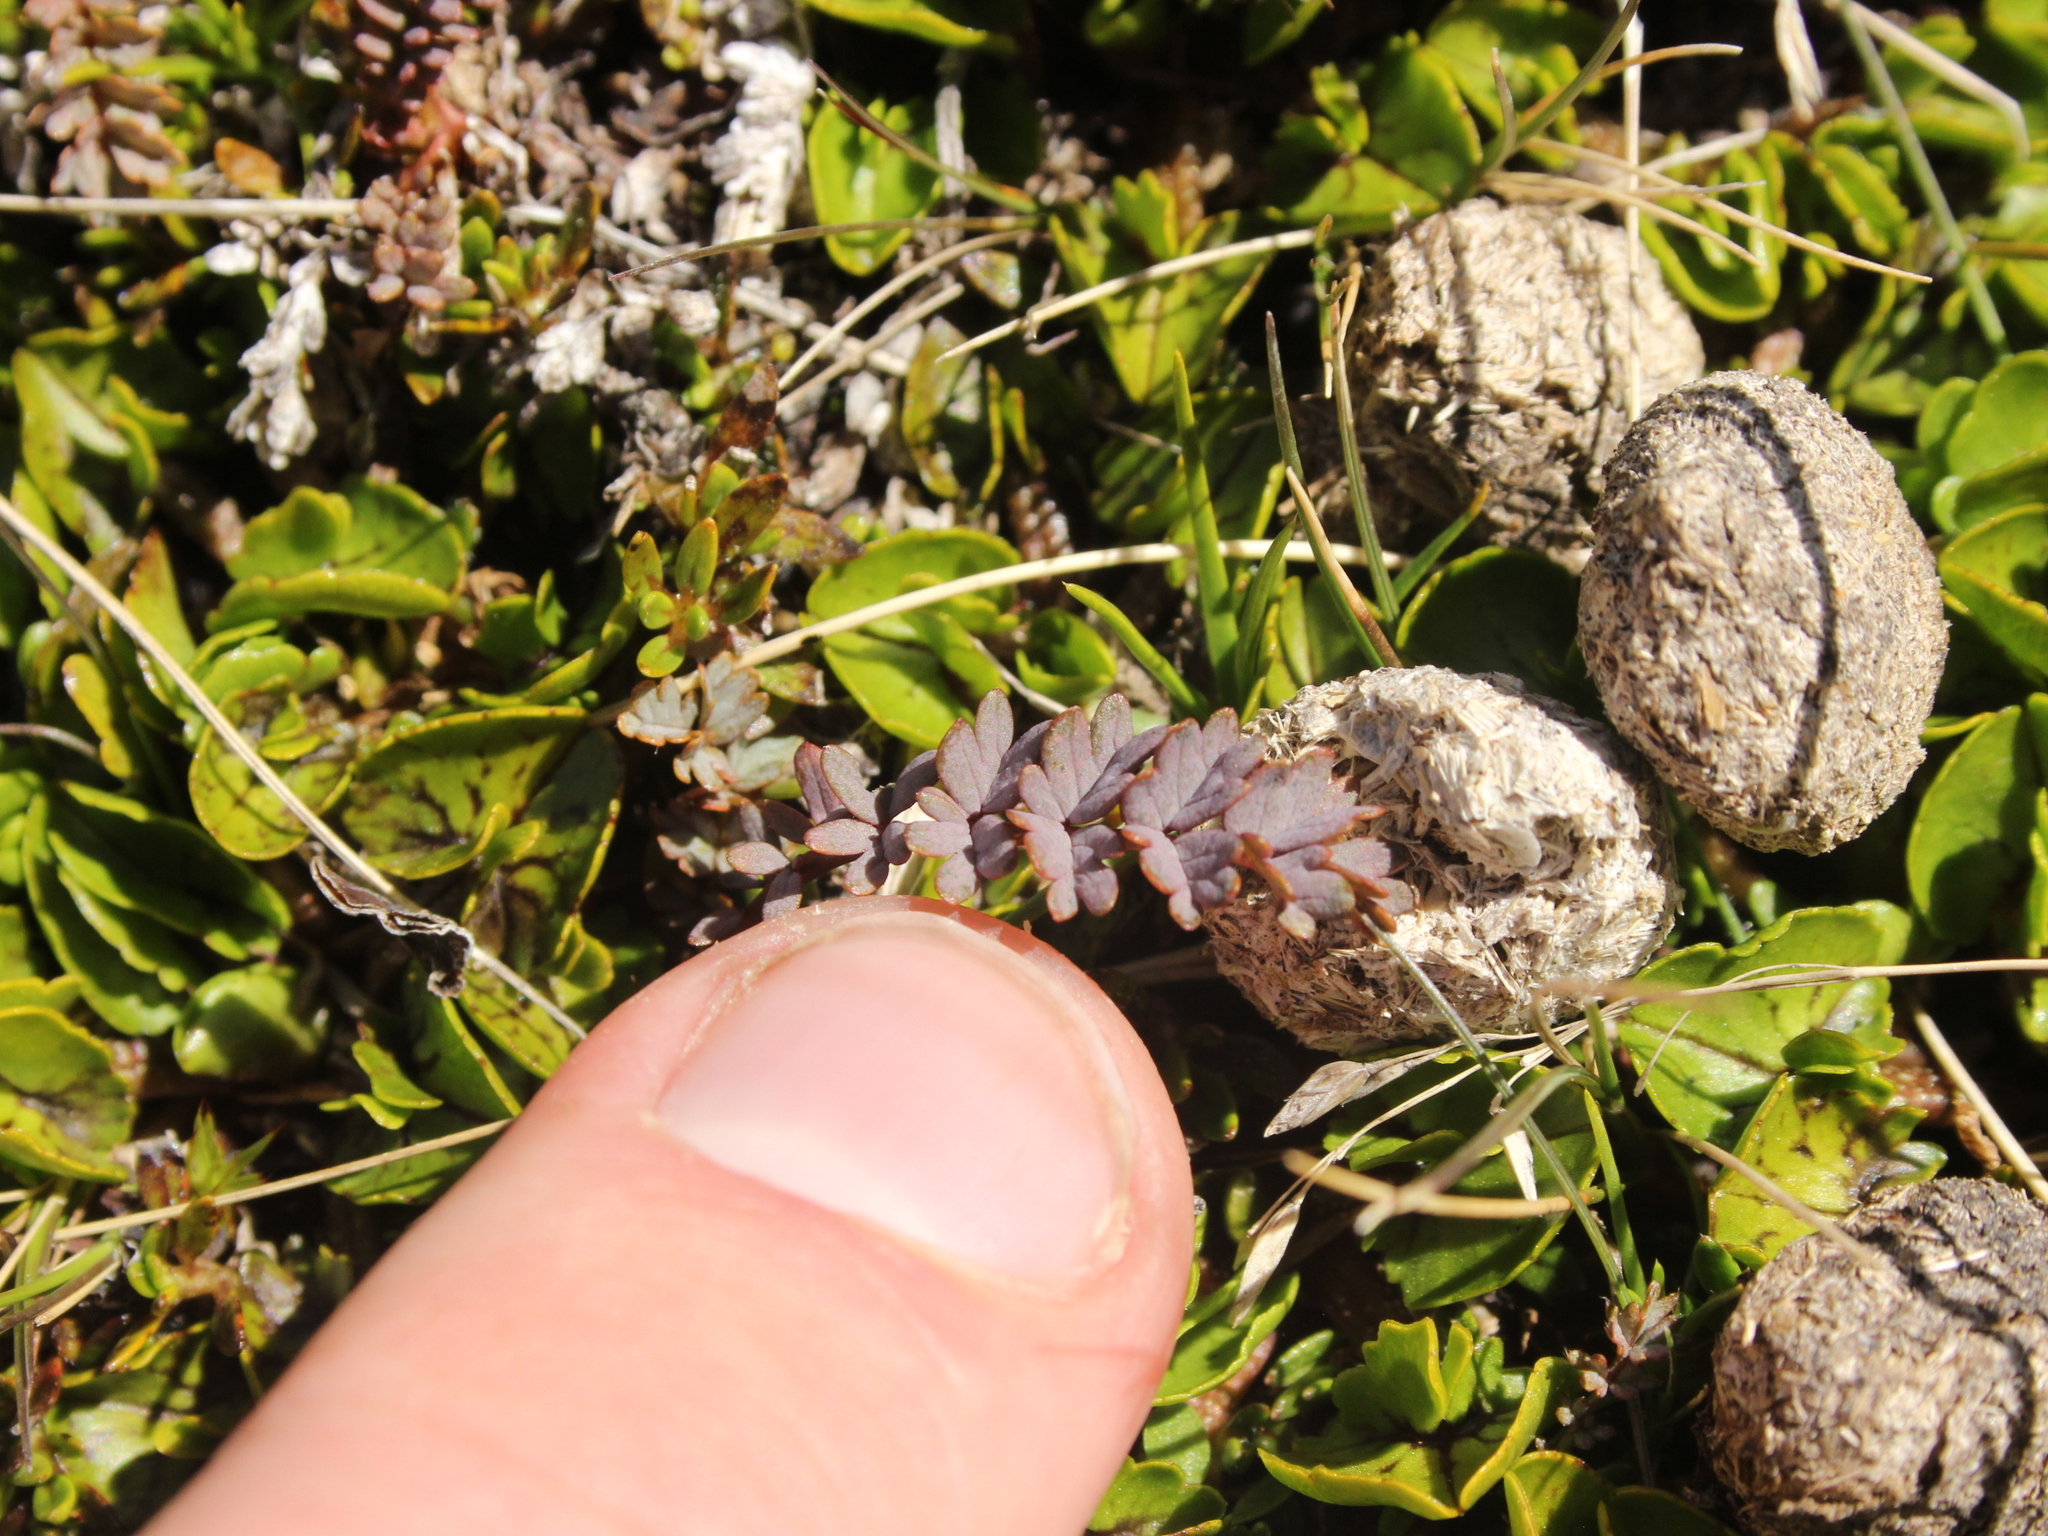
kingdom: Plantae
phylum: Tracheophyta
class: Magnoliopsida
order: Rosales
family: Rosaceae
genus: Acaena
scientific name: Acaena saccaticupula
